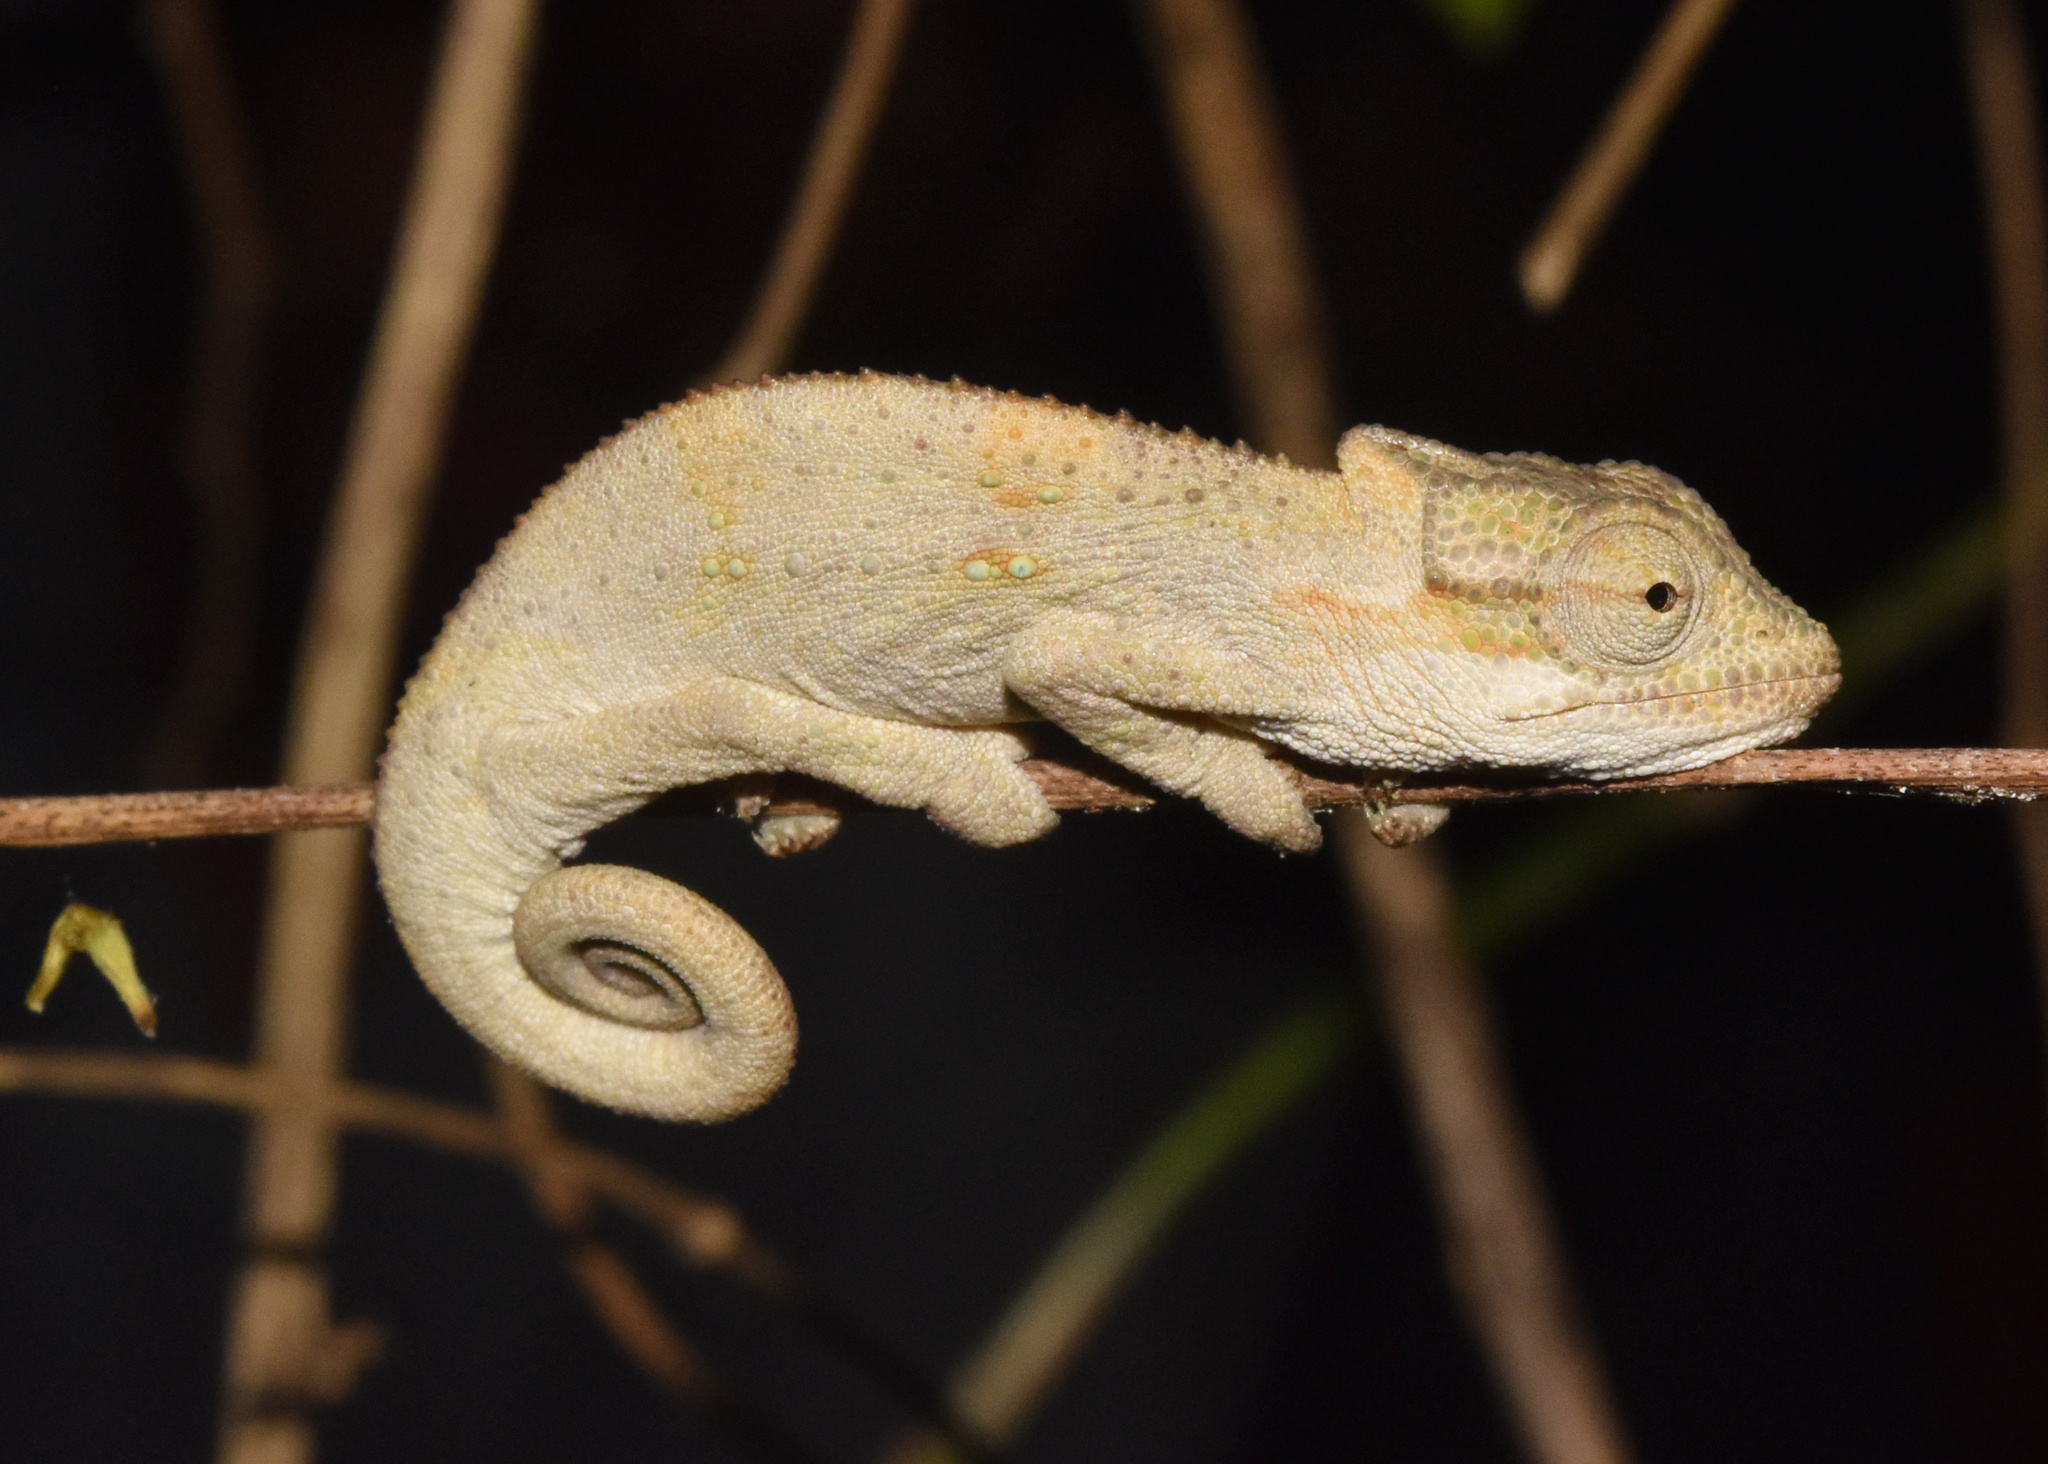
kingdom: Animalia
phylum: Chordata
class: Squamata
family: Chamaeleonidae
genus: Bradypodion
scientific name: Bradypodion melanocephalum
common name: Black-headed dwarf chameleon
